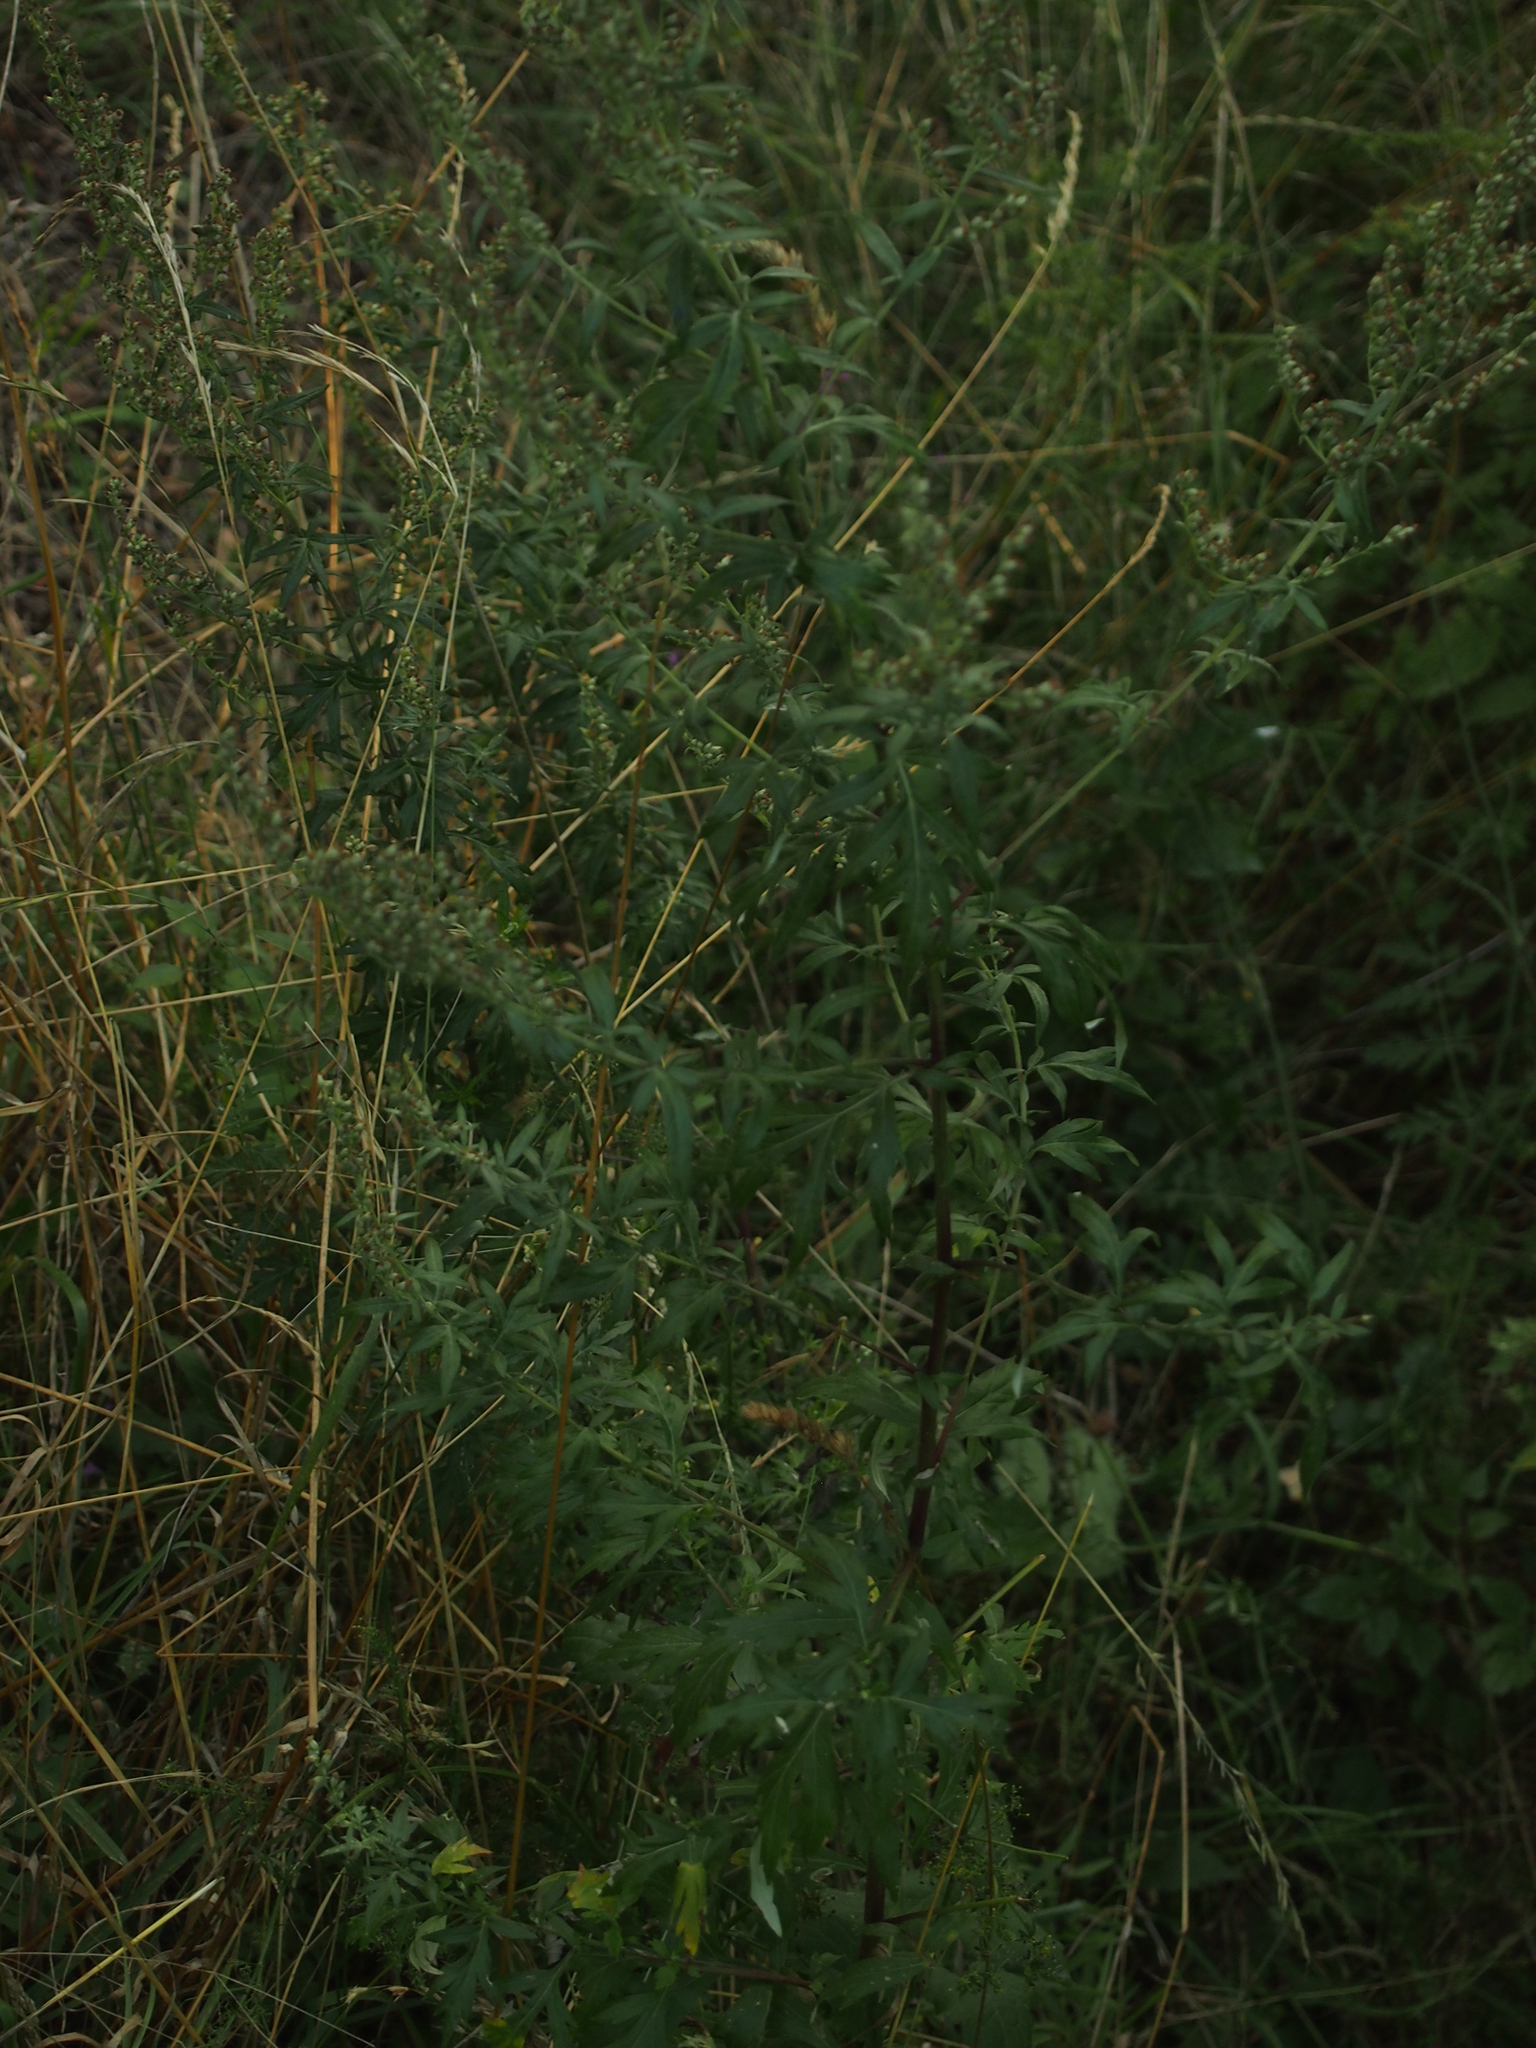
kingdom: Plantae
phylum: Tracheophyta
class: Magnoliopsida
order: Asterales
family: Asteraceae
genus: Artemisia
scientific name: Artemisia vulgaris
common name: Mugwort
